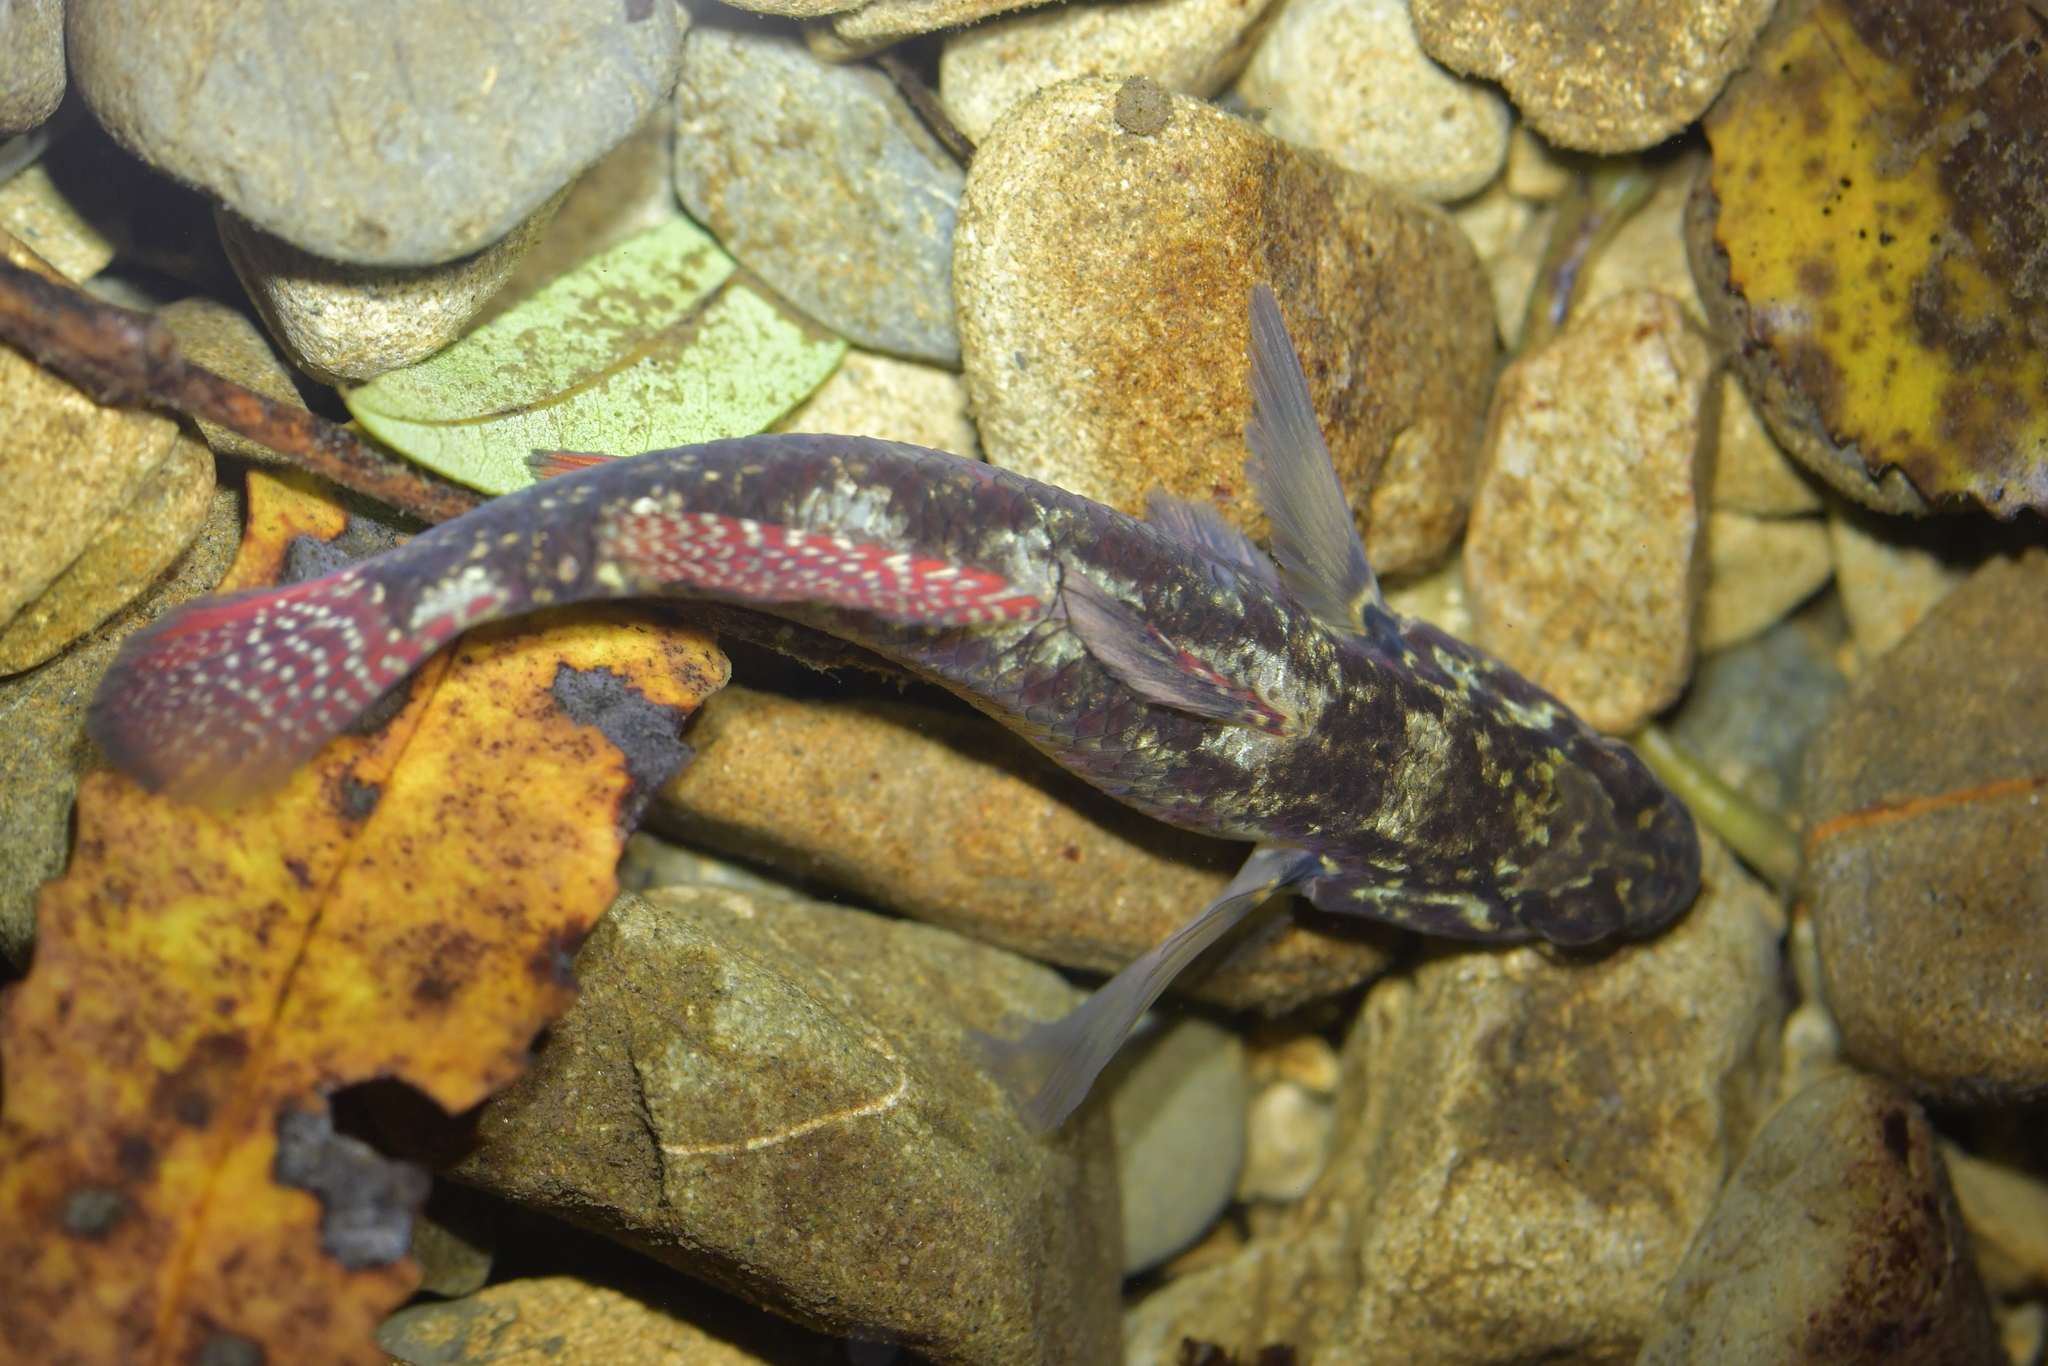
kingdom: Animalia
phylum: Chordata
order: Perciformes
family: Eleotridae
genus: Gobiomorphus
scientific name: Gobiomorphus huttoni
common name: Redfin bully
